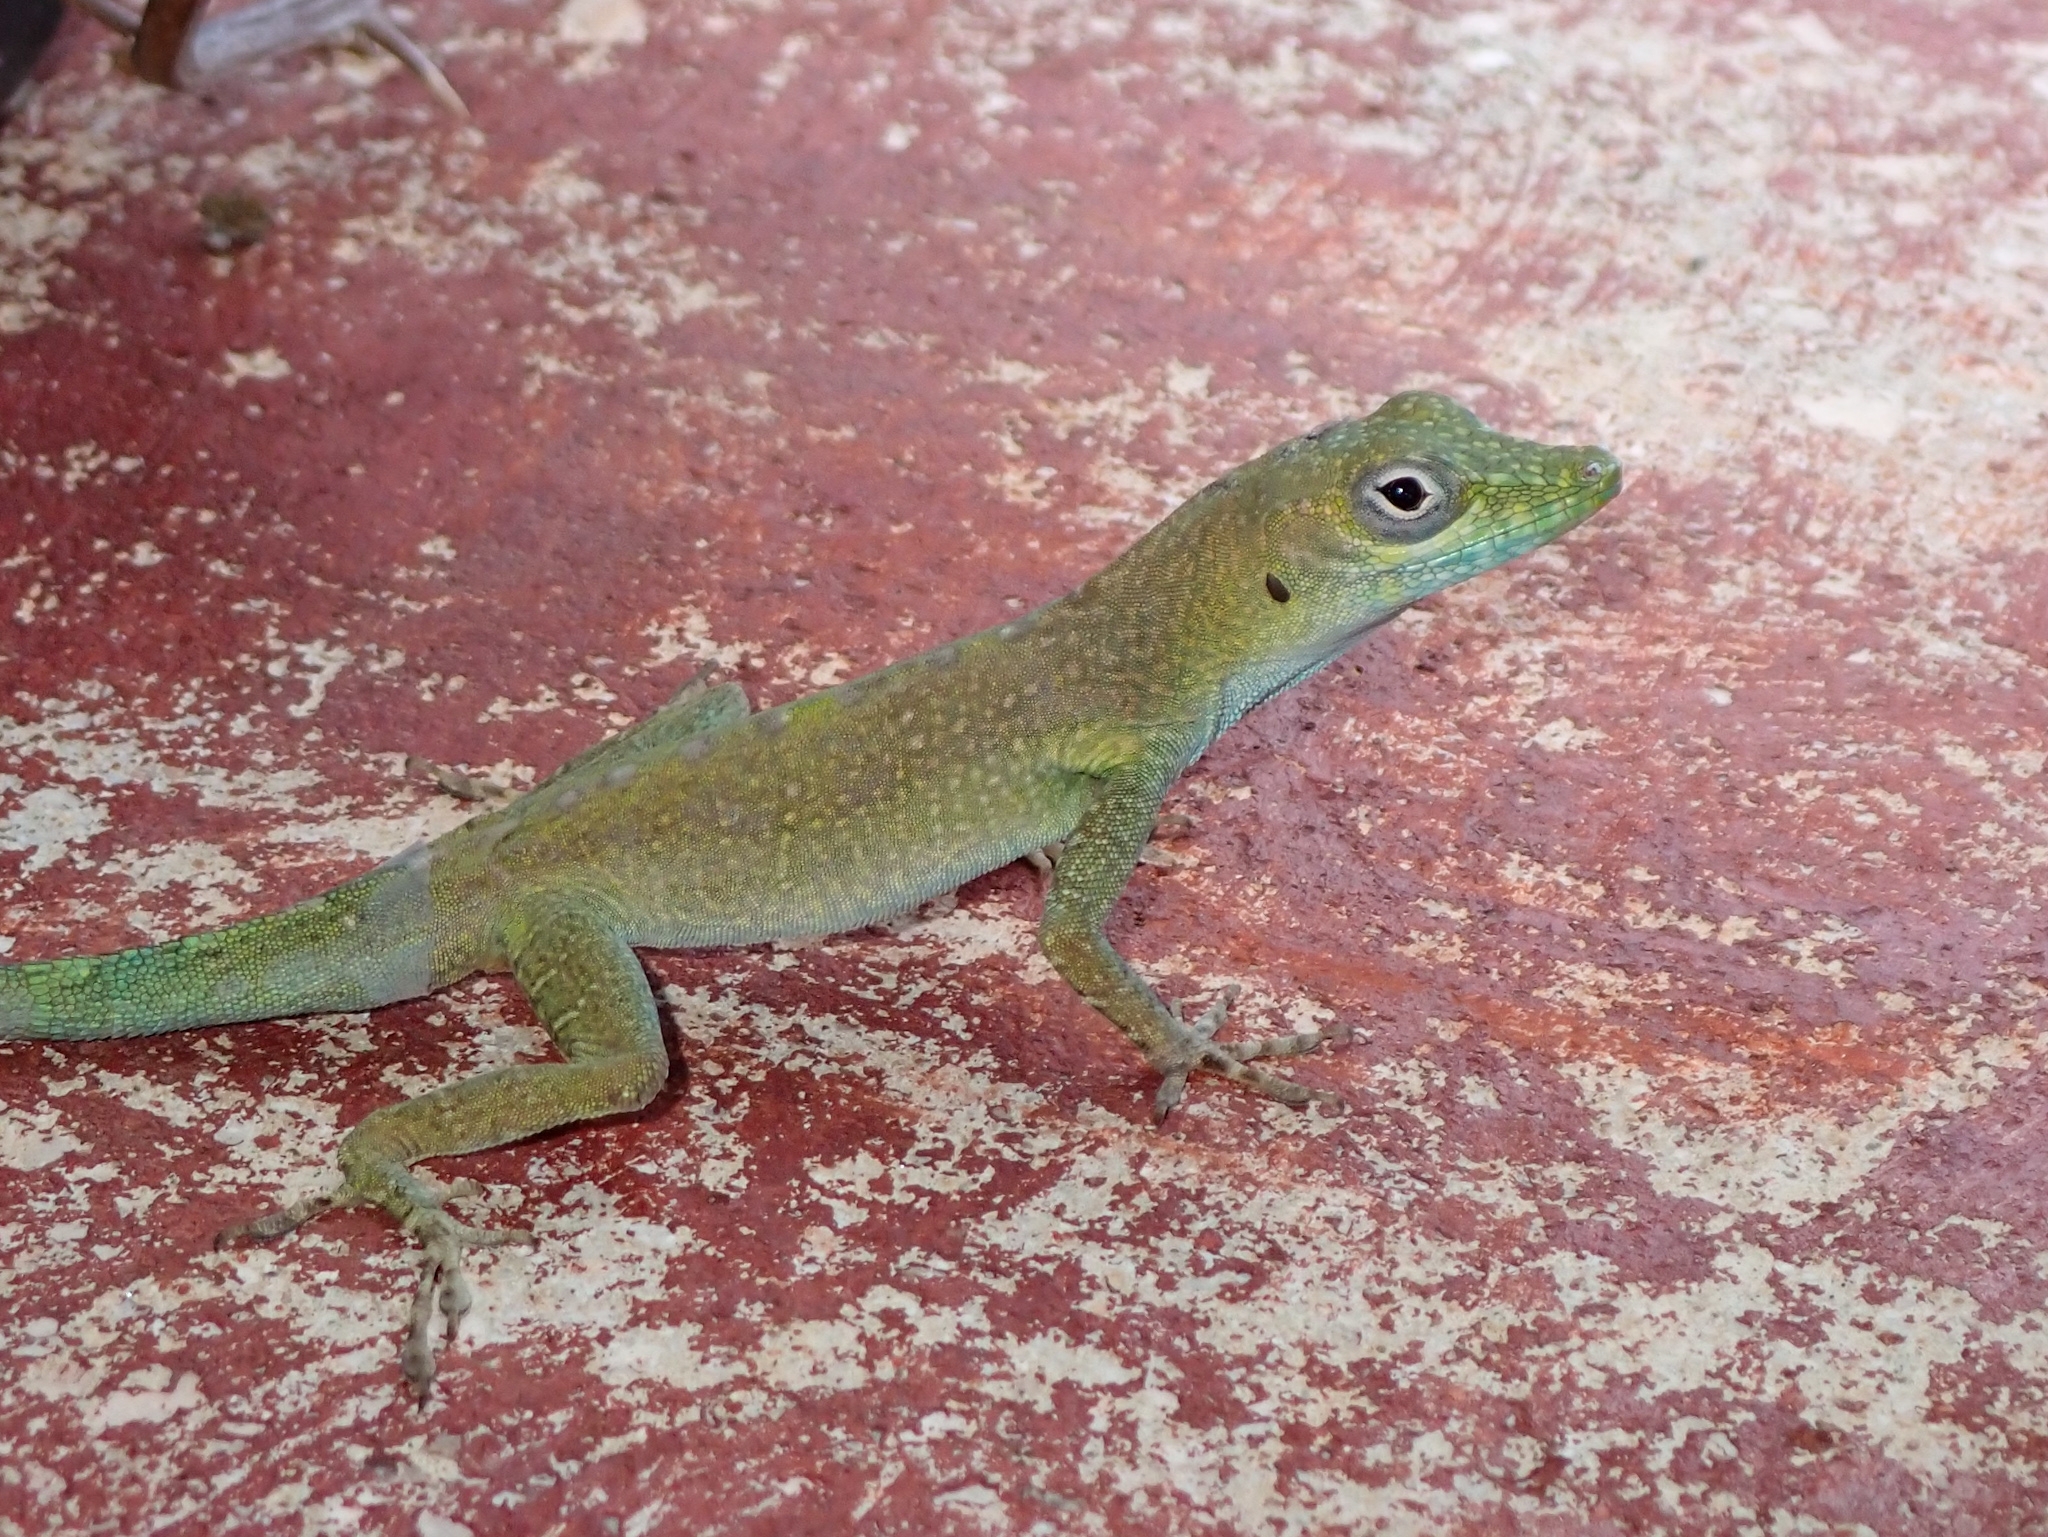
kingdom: Animalia
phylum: Chordata
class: Squamata
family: Dactyloidae
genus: Anolis
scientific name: Anolis conspersus
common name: Grand cayman anole
